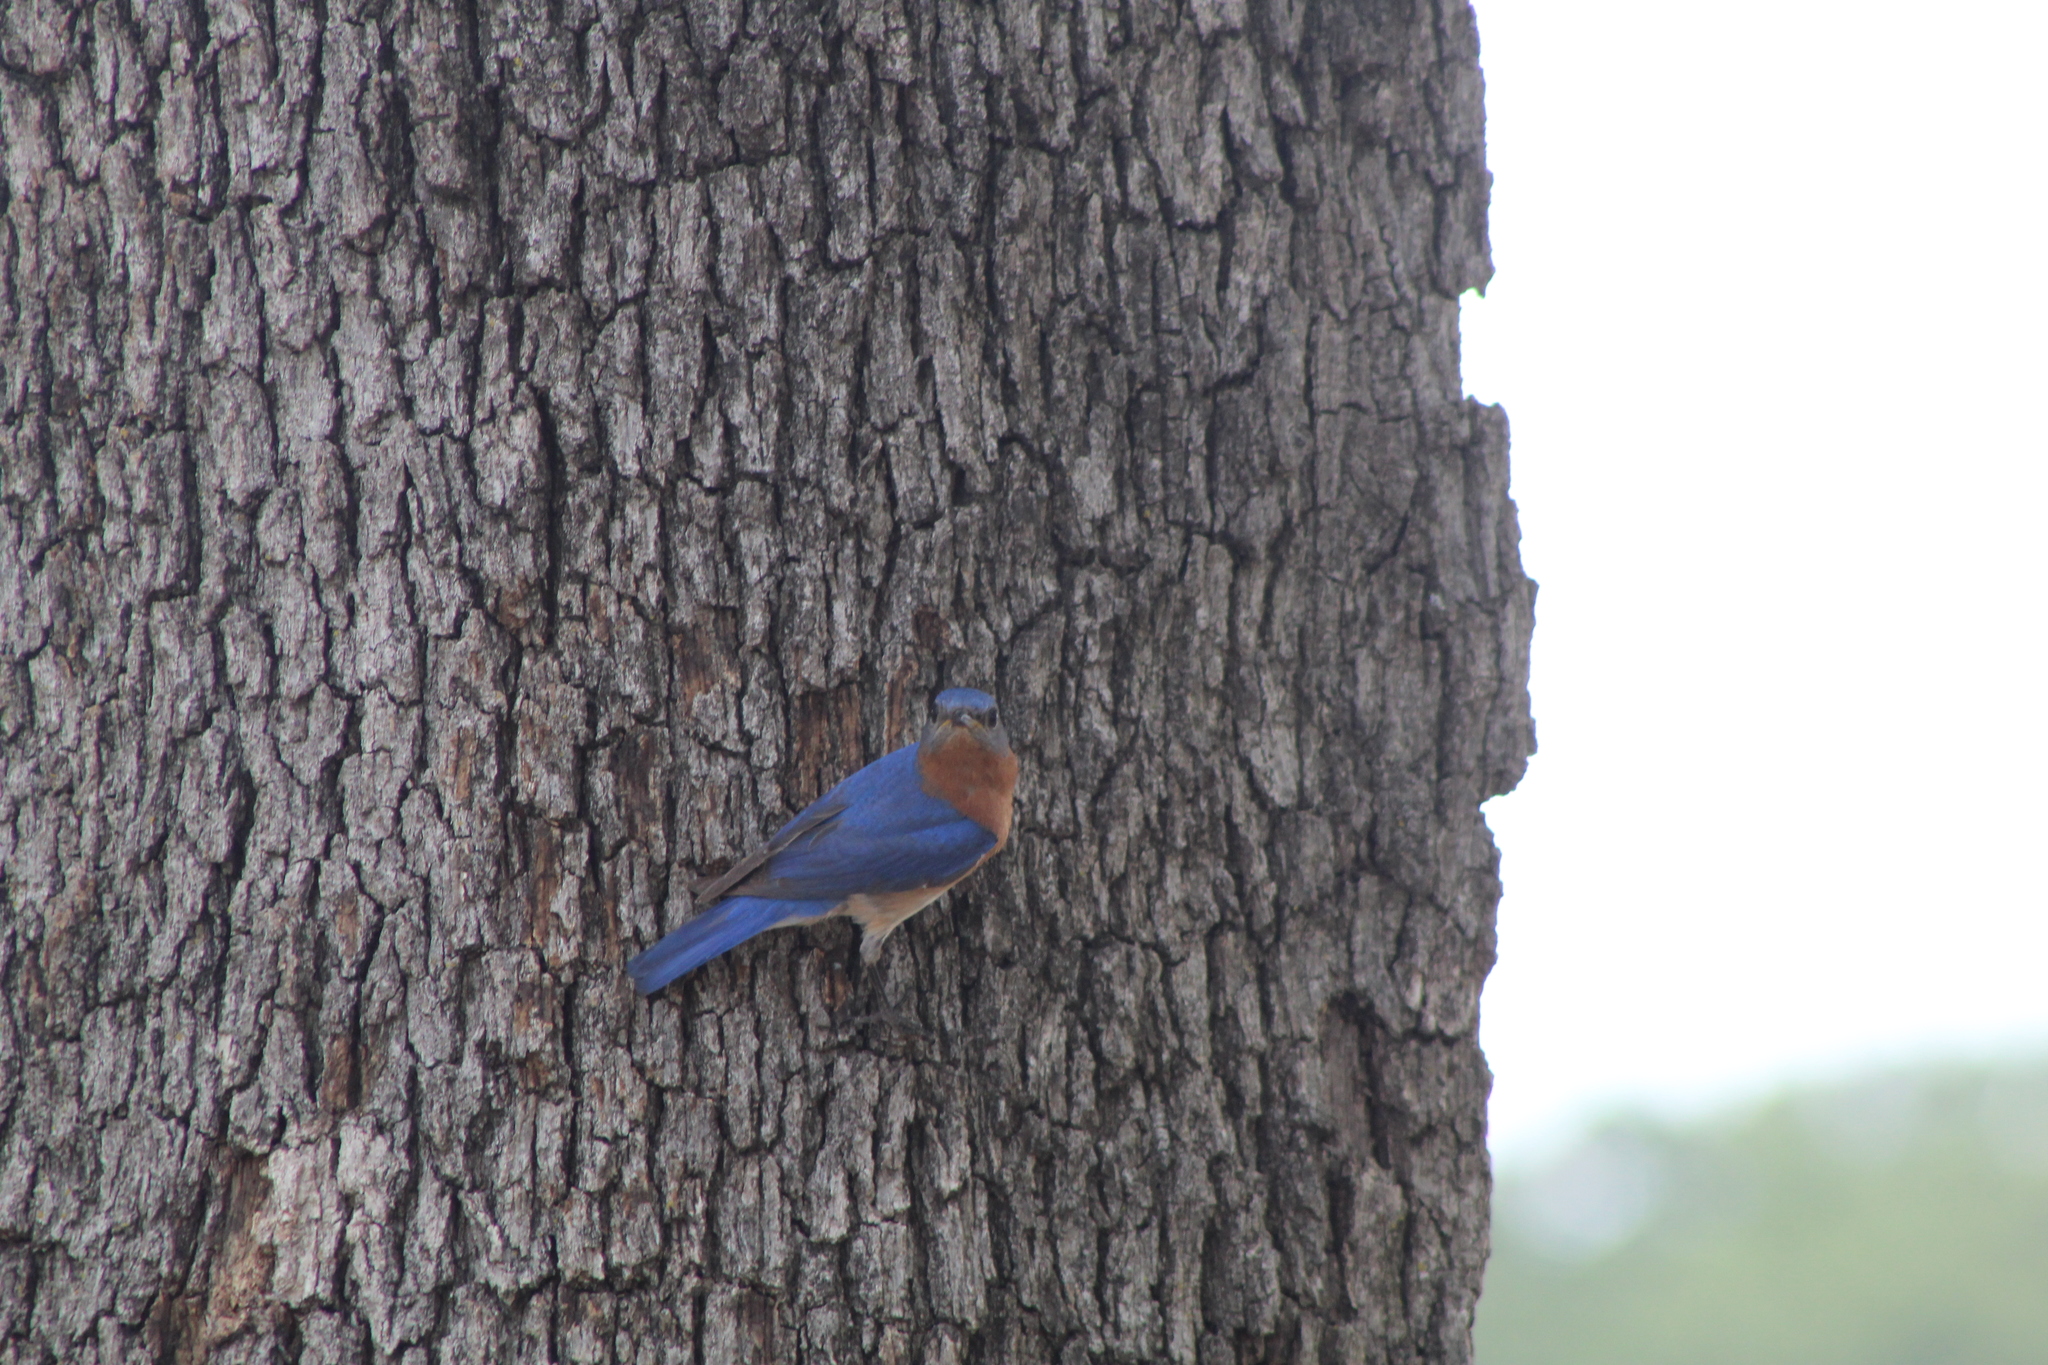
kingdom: Animalia
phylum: Chordata
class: Aves
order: Passeriformes
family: Turdidae
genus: Sialia
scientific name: Sialia sialis
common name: Eastern bluebird
